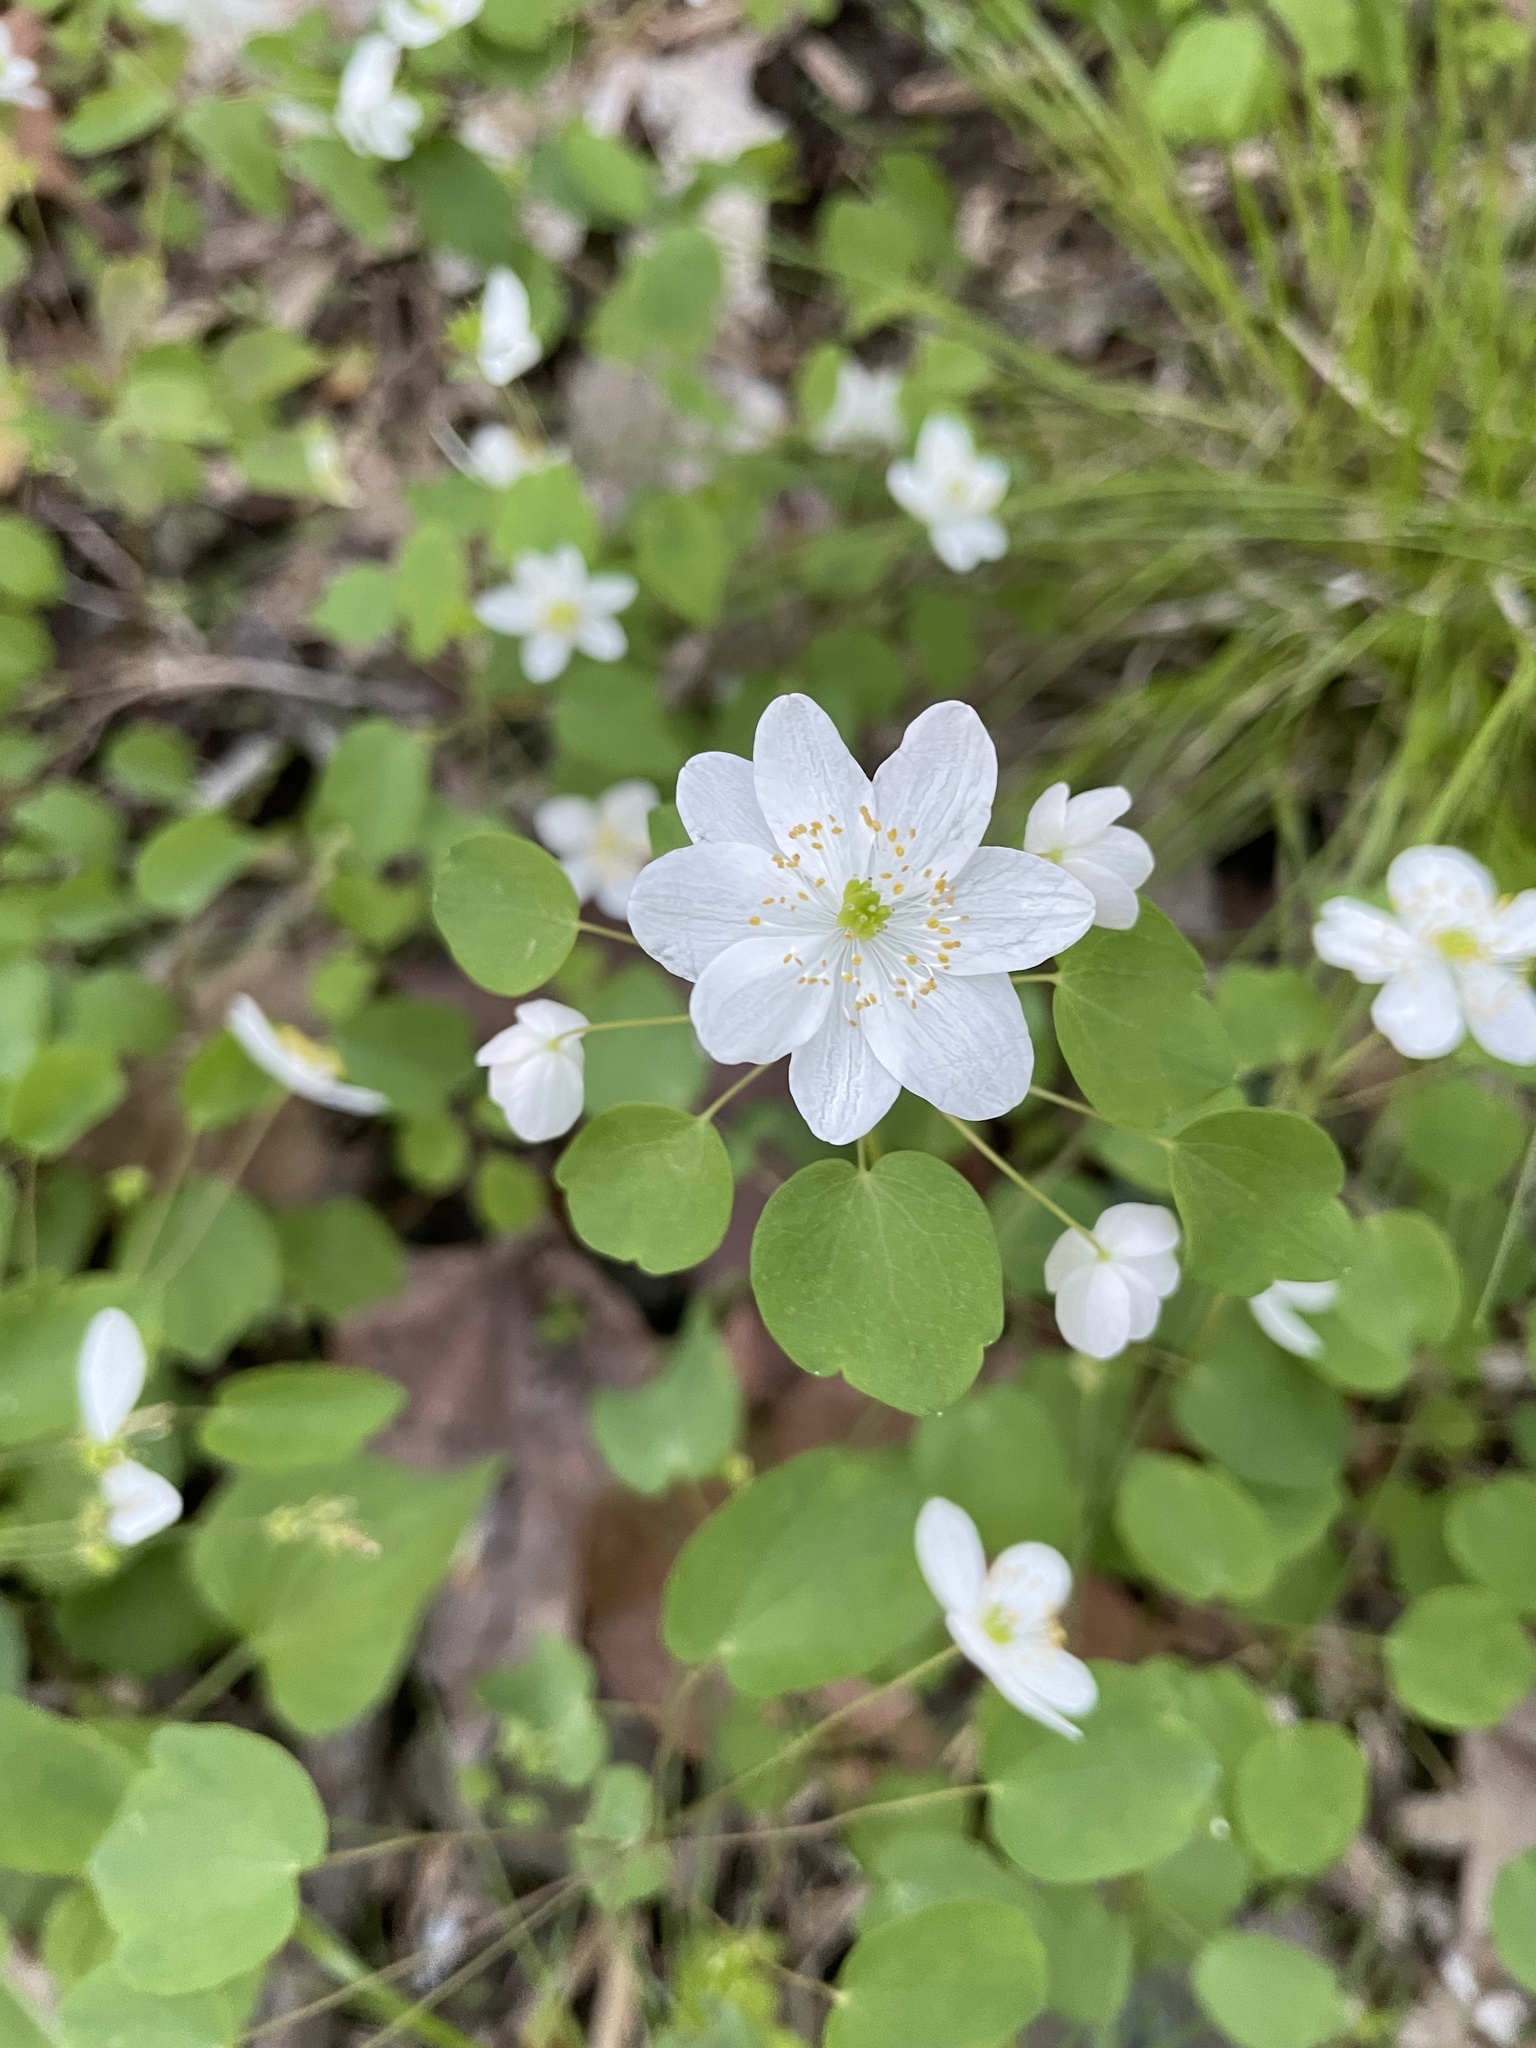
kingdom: Plantae
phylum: Tracheophyta
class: Magnoliopsida
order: Ranunculales
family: Ranunculaceae
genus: Thalictrum
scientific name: Thalictrum thalictroides
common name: Rue-anemone
